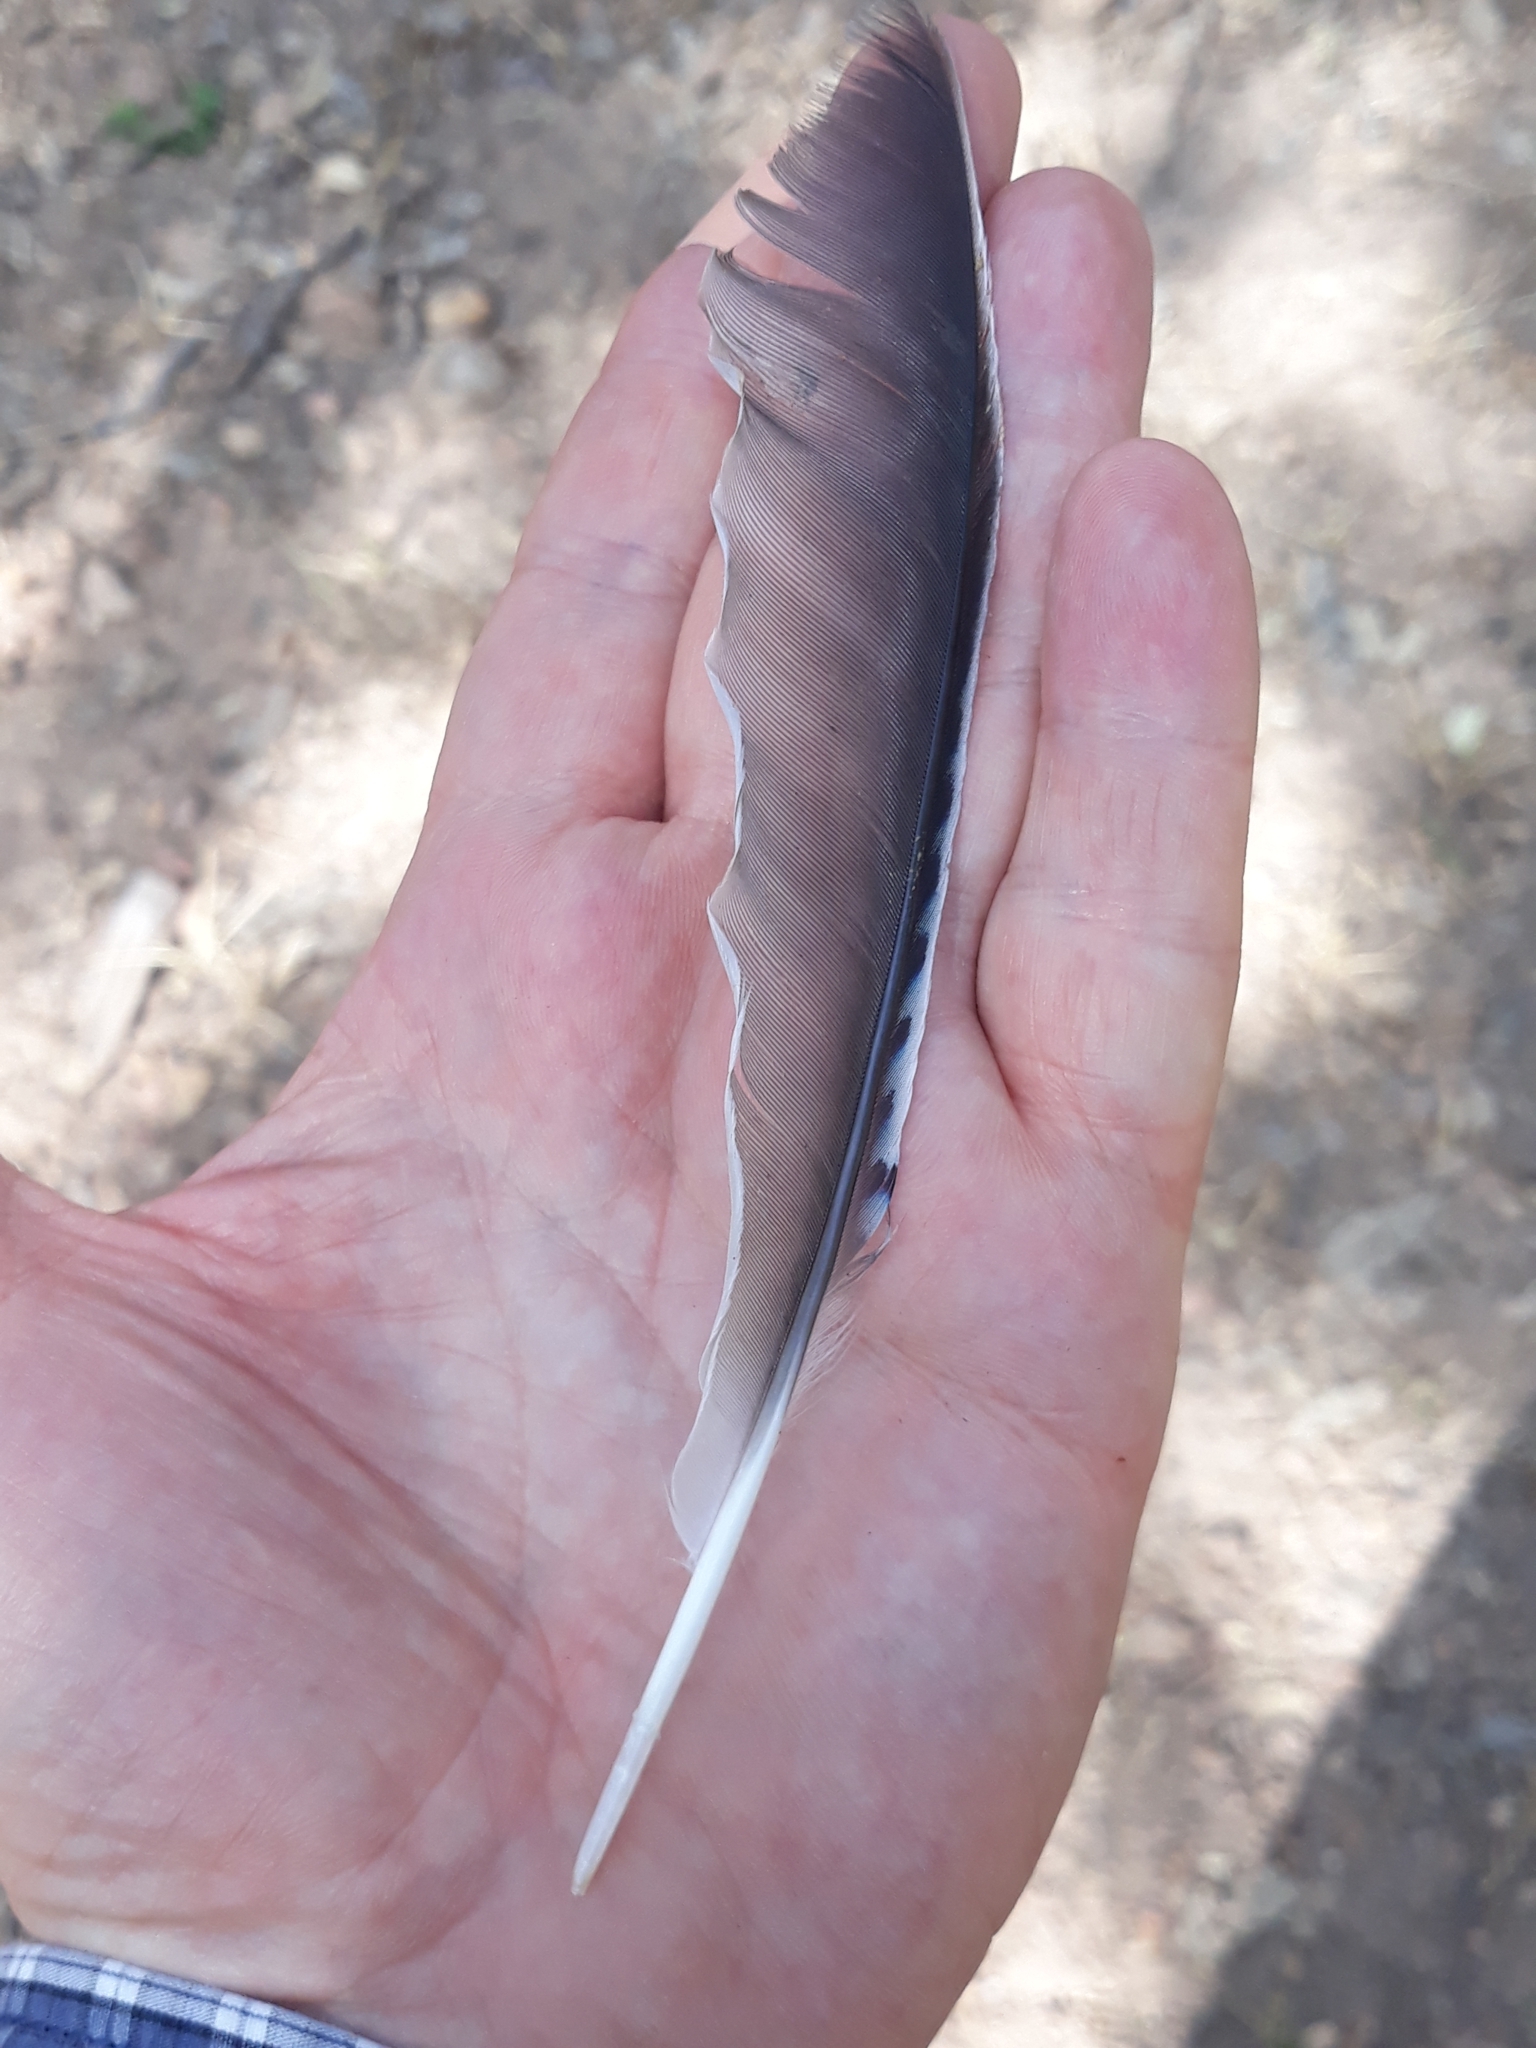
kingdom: Animalia
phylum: Chordata
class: Aves
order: Passeriformes
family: Corvidae
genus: Garrulus
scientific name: Garrulus glandarius
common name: Eurasian jay
